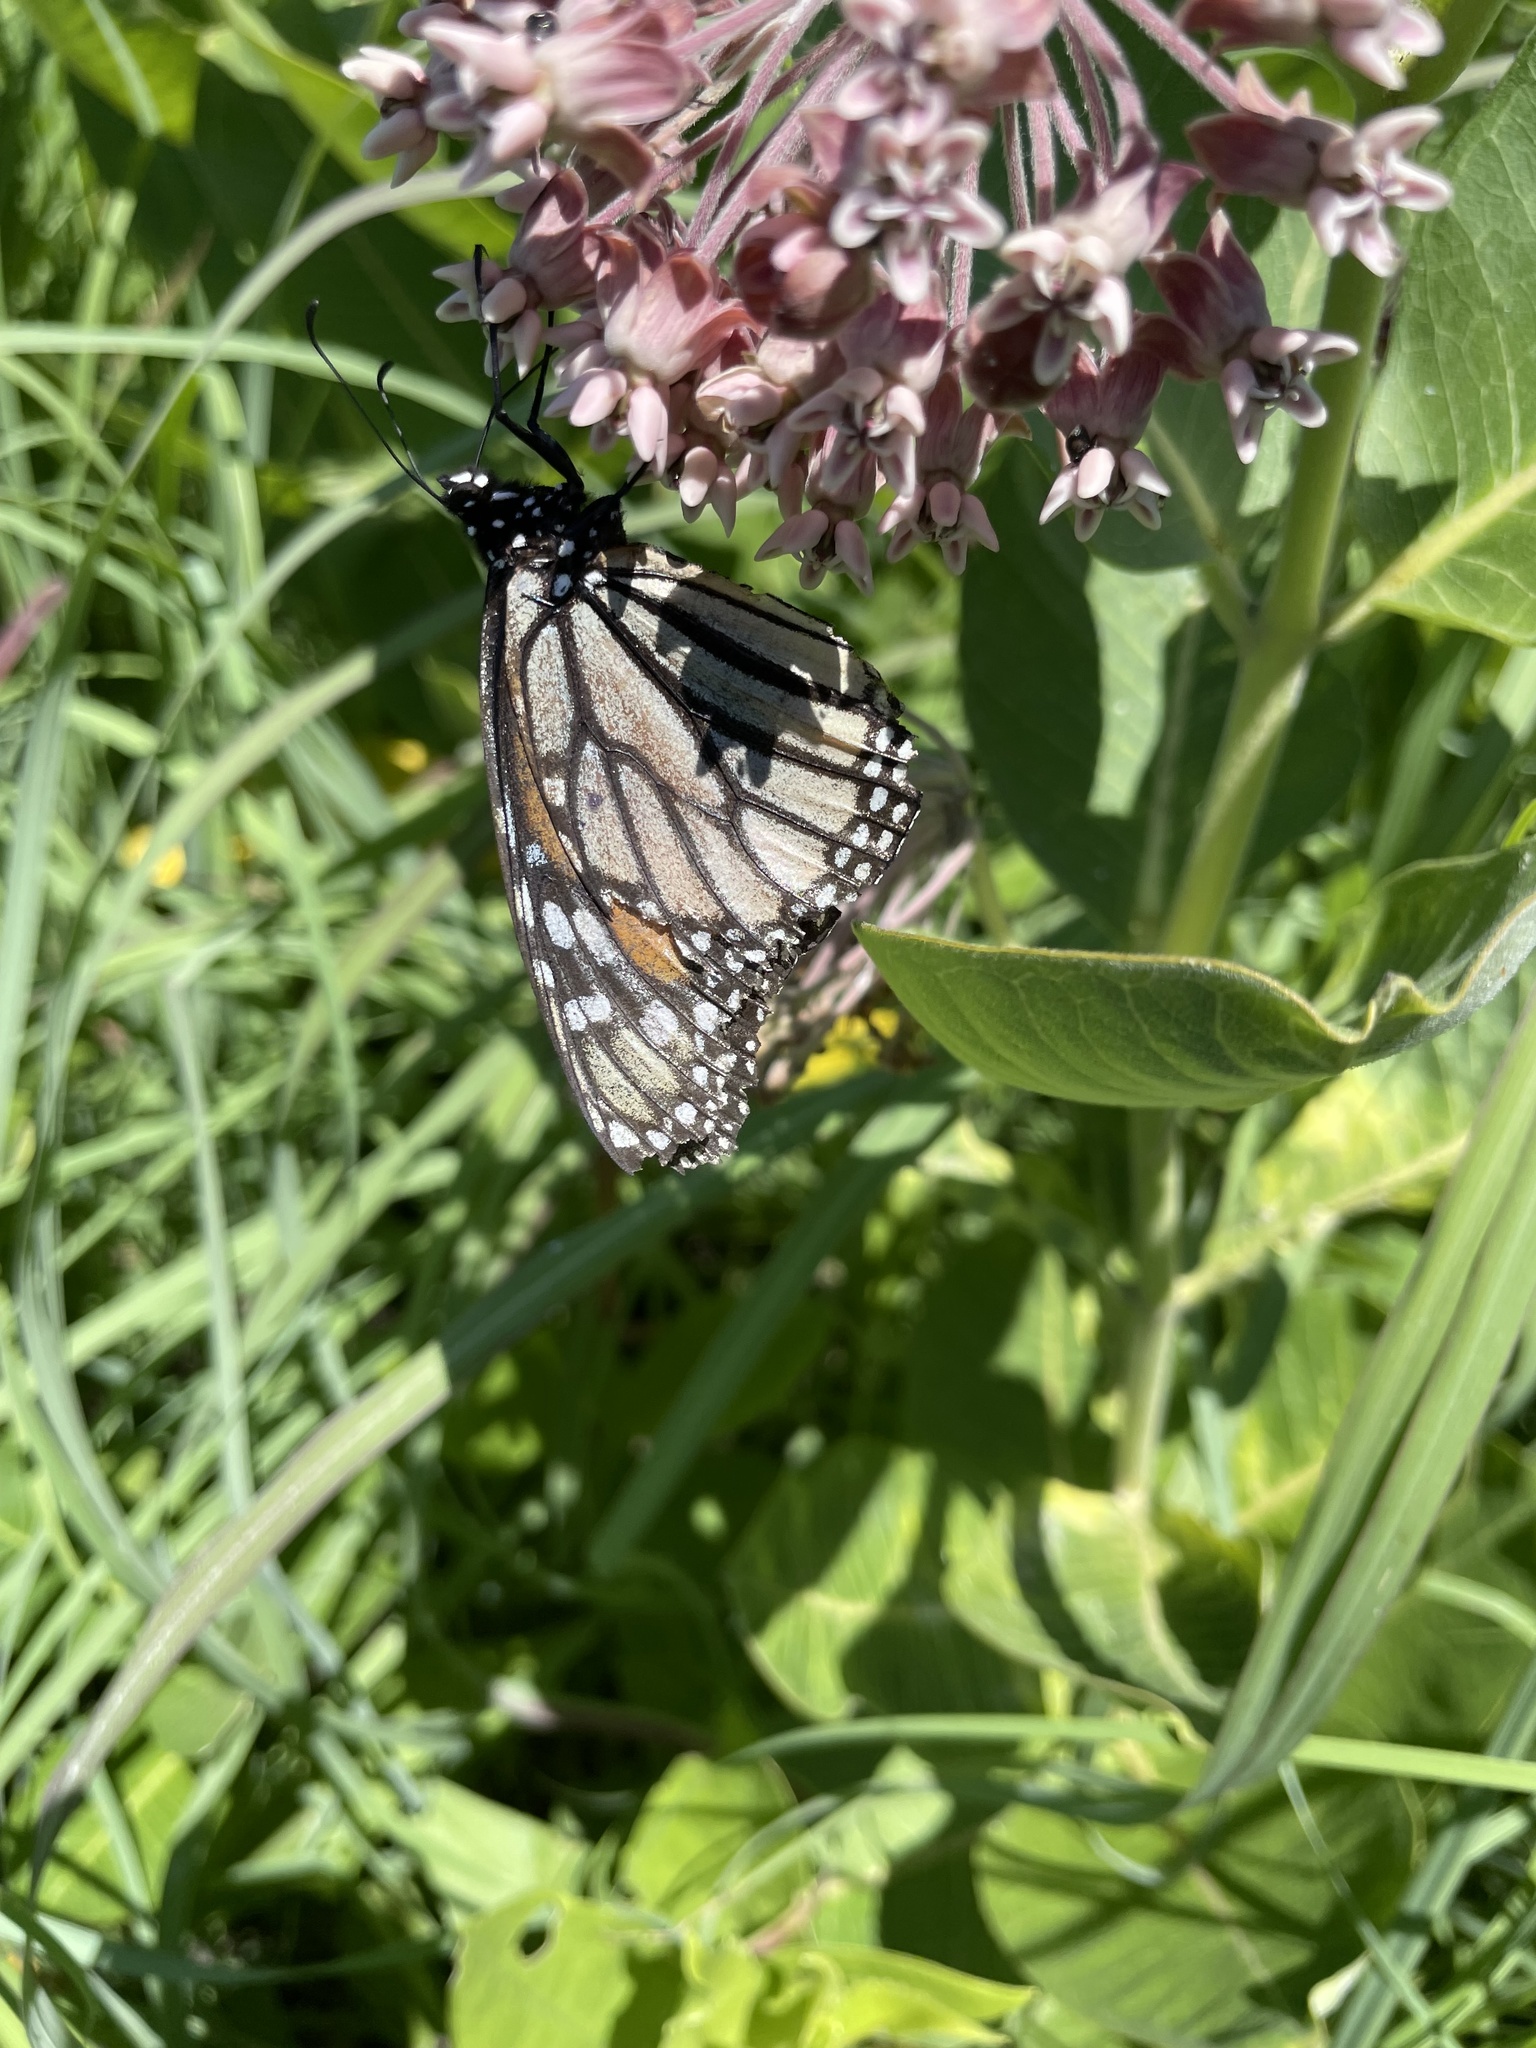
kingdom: Animalia
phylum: Arthropoda
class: Insecta
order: Lepidoptera
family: Nymphalidae
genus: Danaus
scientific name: Danaus plexippus
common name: Monarch
